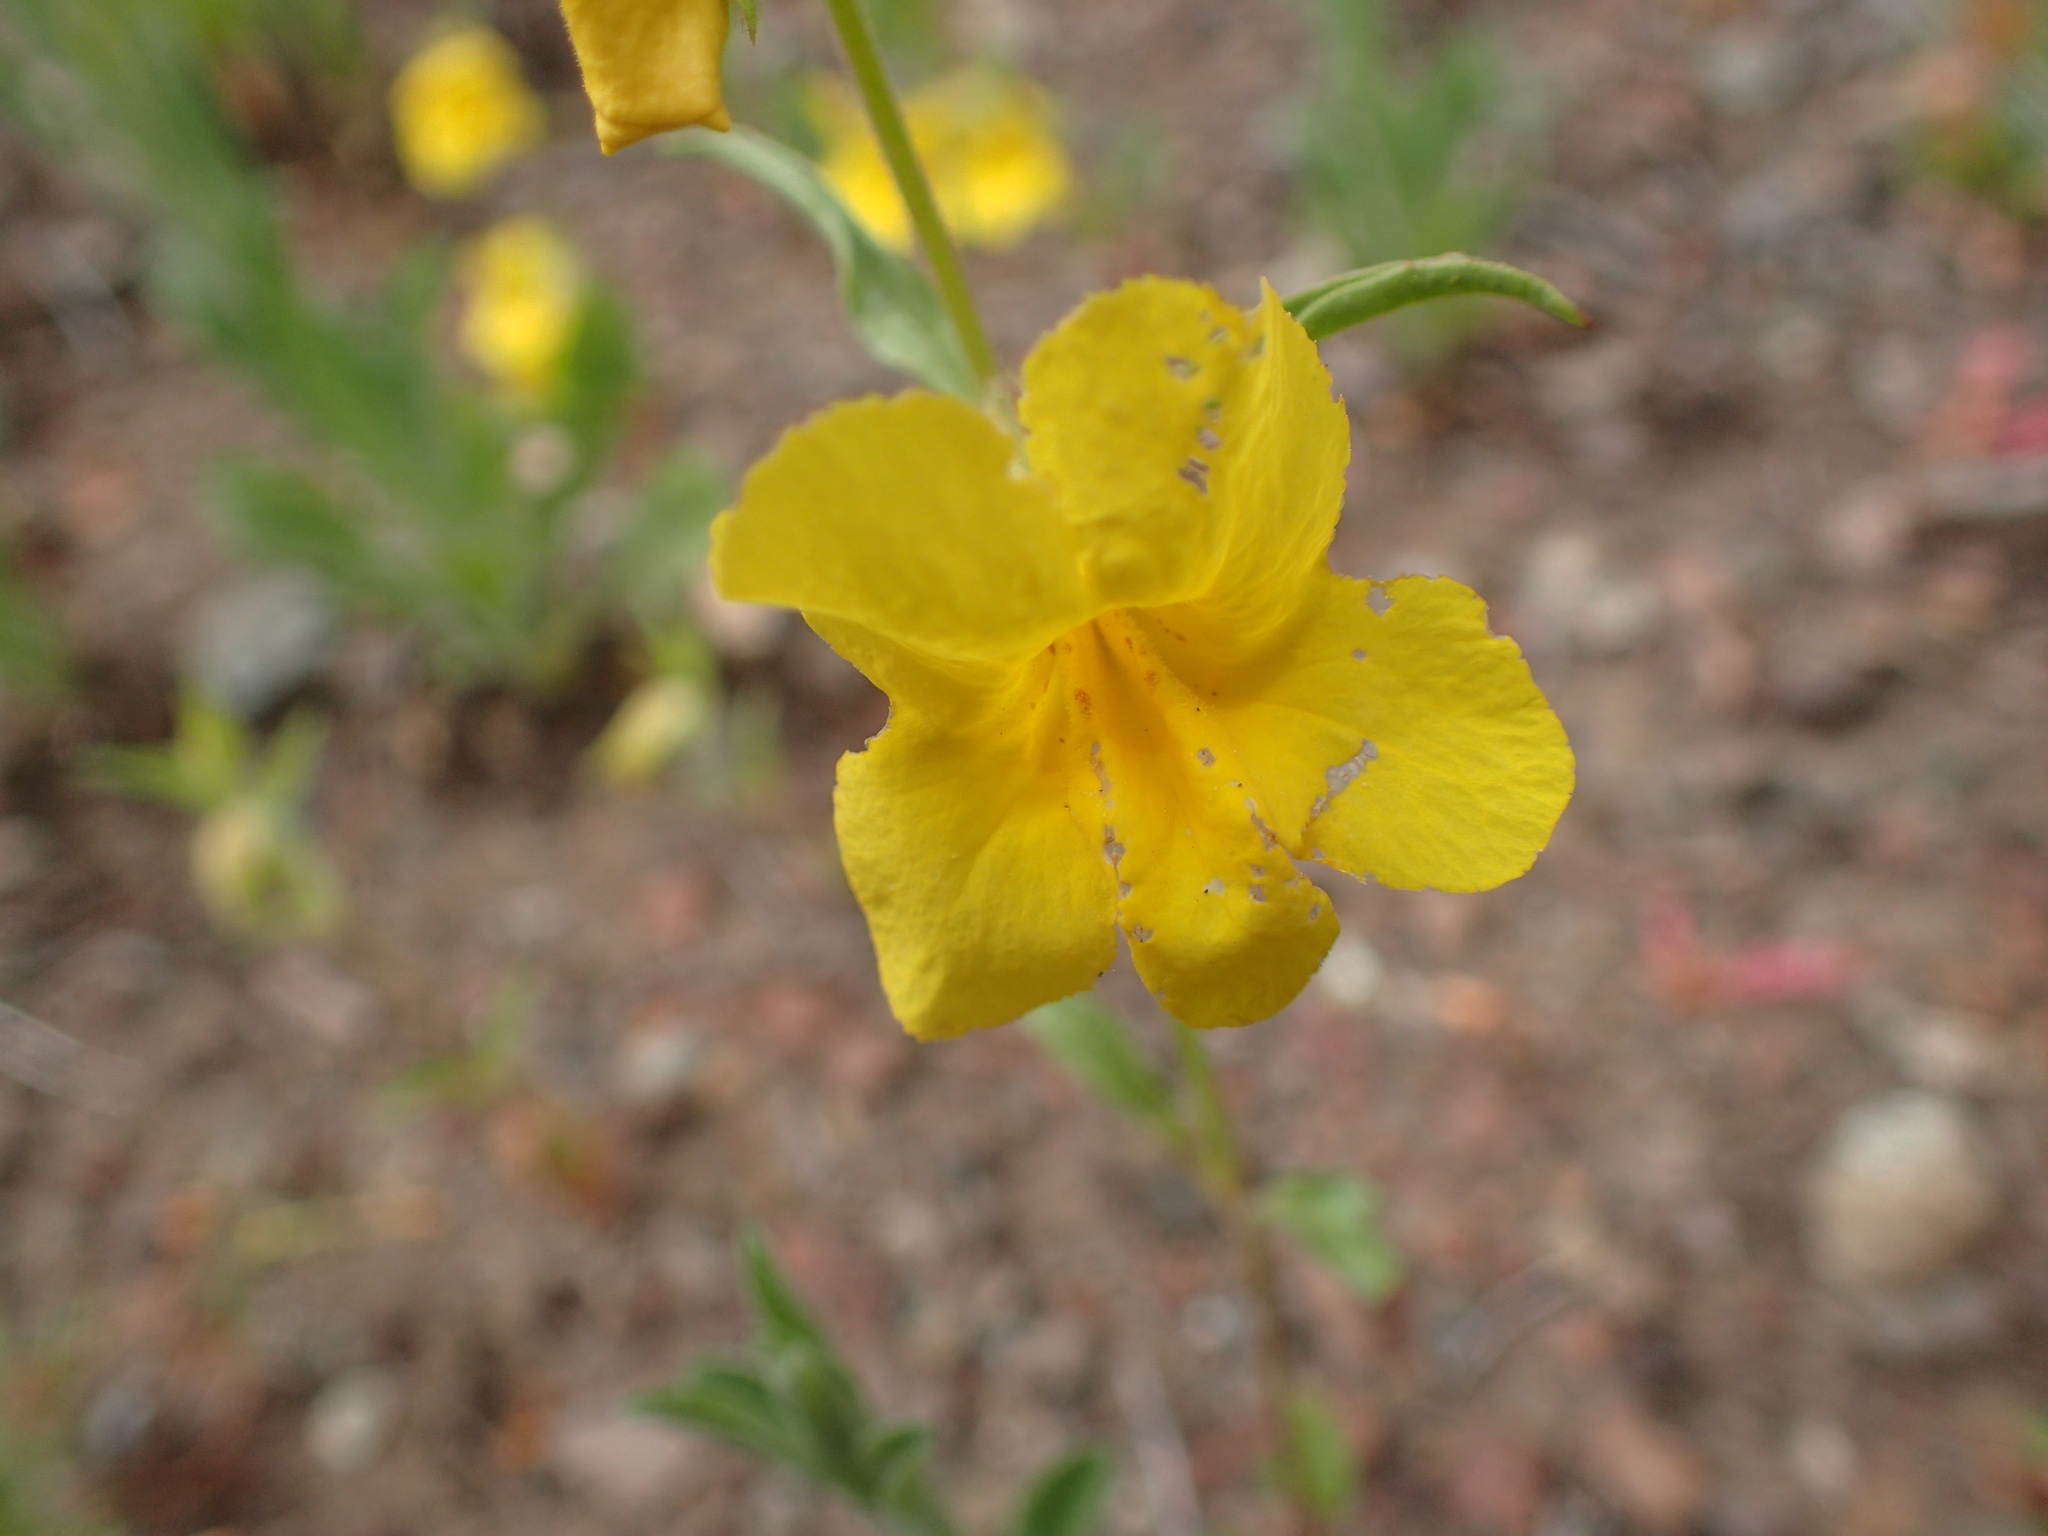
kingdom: Plantae
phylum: Tracheophyta
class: Magnoliopsida
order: Lamiales
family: Phrymaceae
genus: Diplacus
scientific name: Diplacus brevipes
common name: Wide-throat yellow monkey-flower
